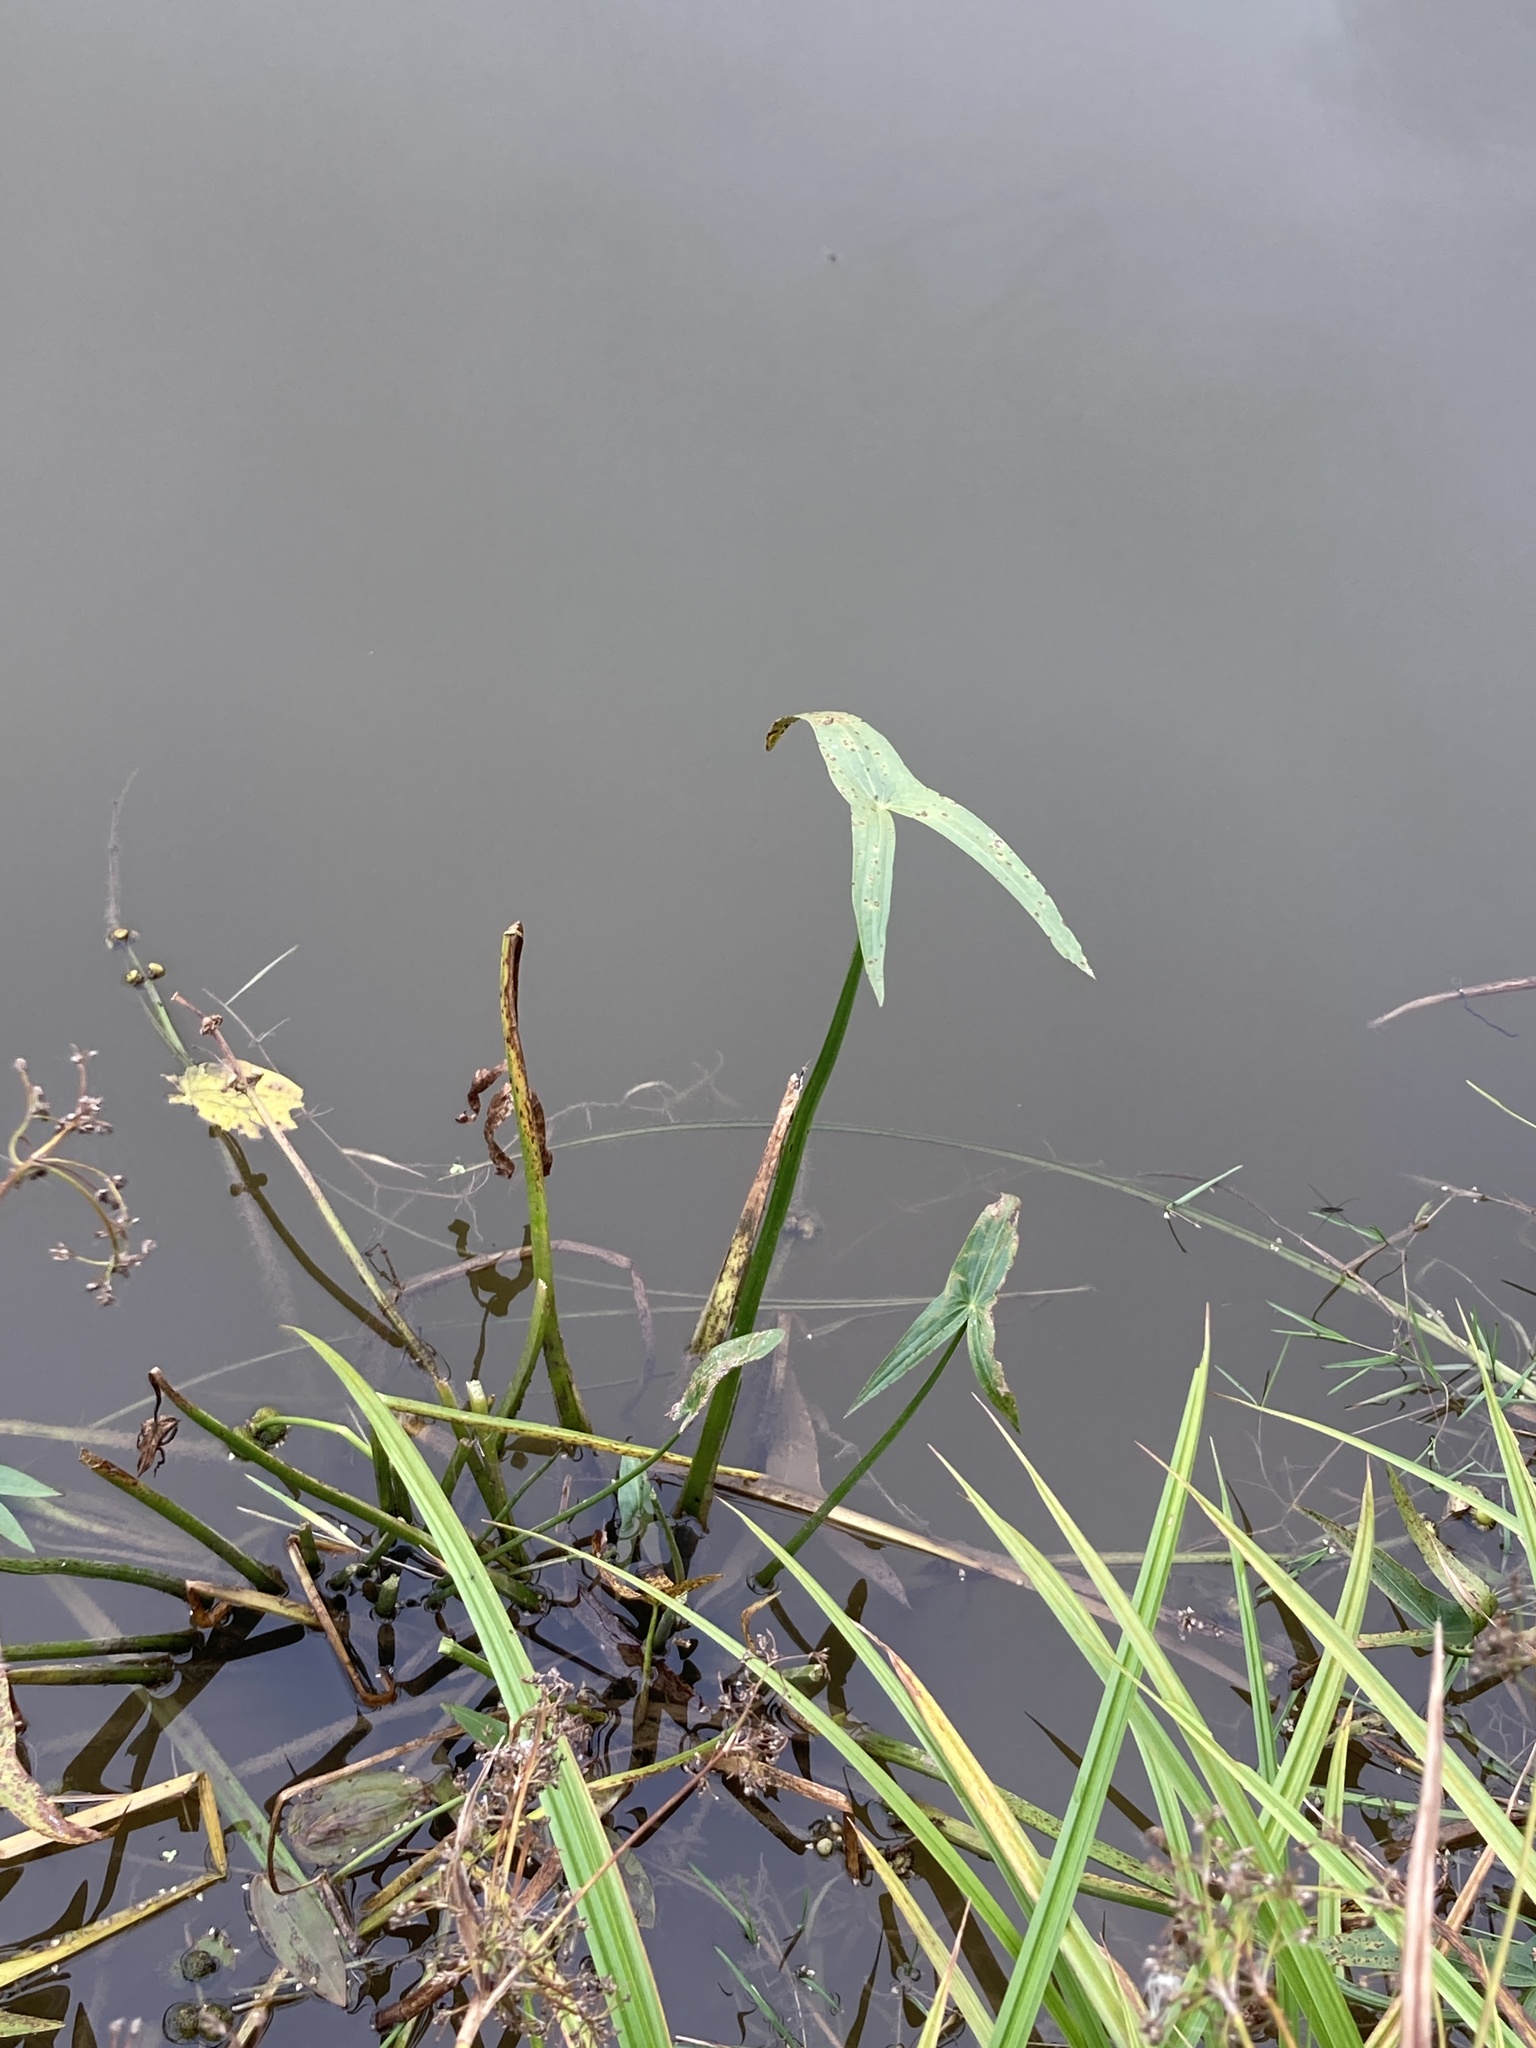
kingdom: Plantae
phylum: Tracheophyta
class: Liliopsida
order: Alismatales
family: Alismataceae
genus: Sagittaria
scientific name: Sagittaria sagittifolia
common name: Arrowhead
